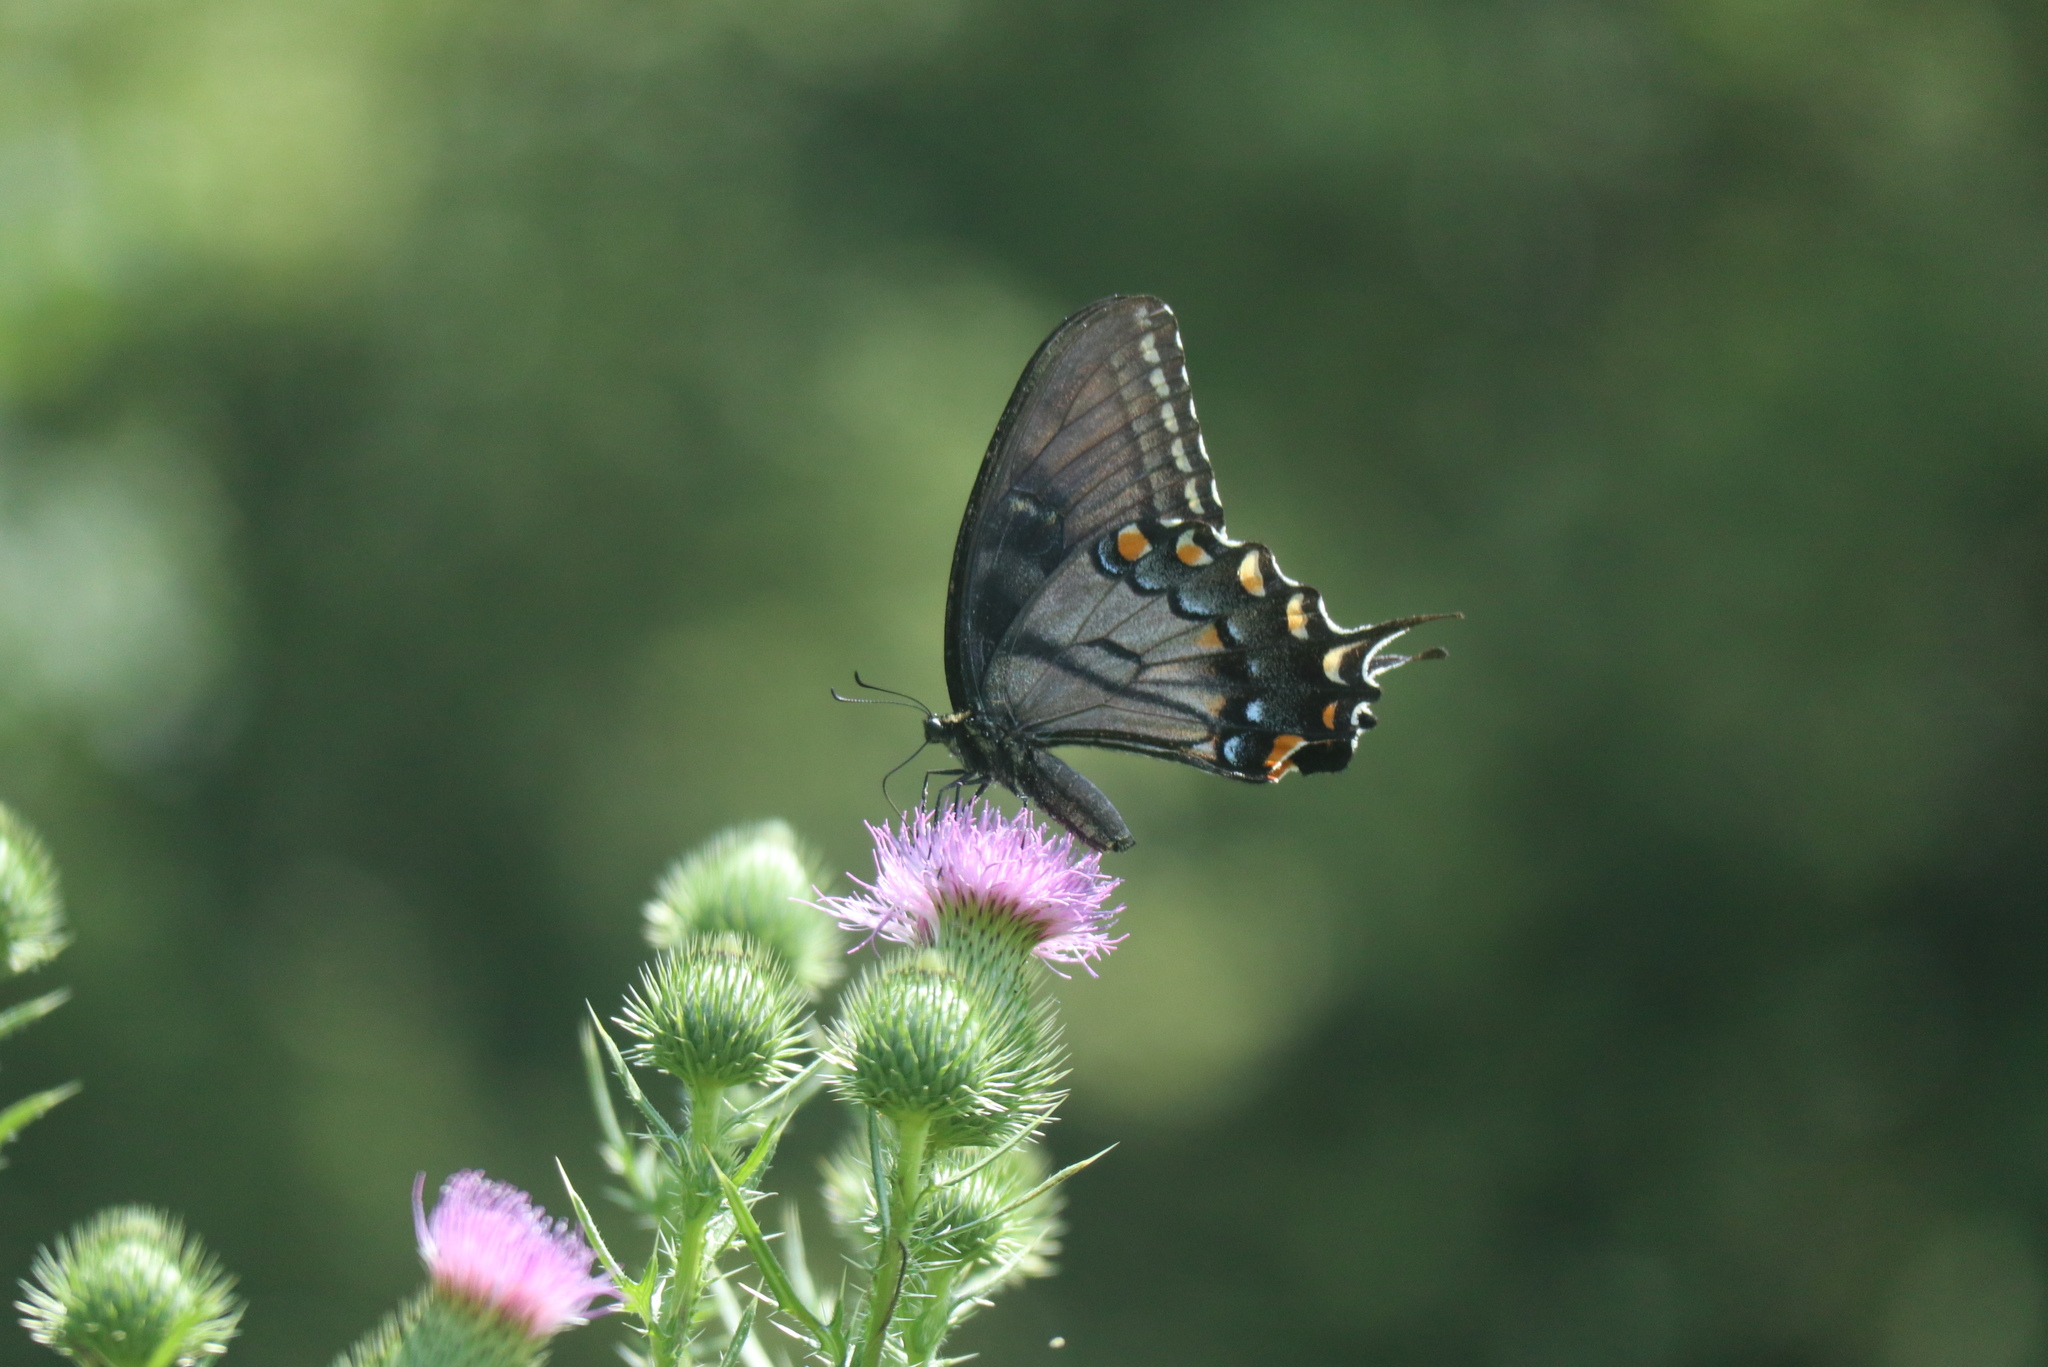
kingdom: Animalia
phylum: Arthropoda
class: Insecta
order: Lepidoptera
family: Papilionidae
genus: Papilio
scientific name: Papilio glaucus
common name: Tiger swallowtail
